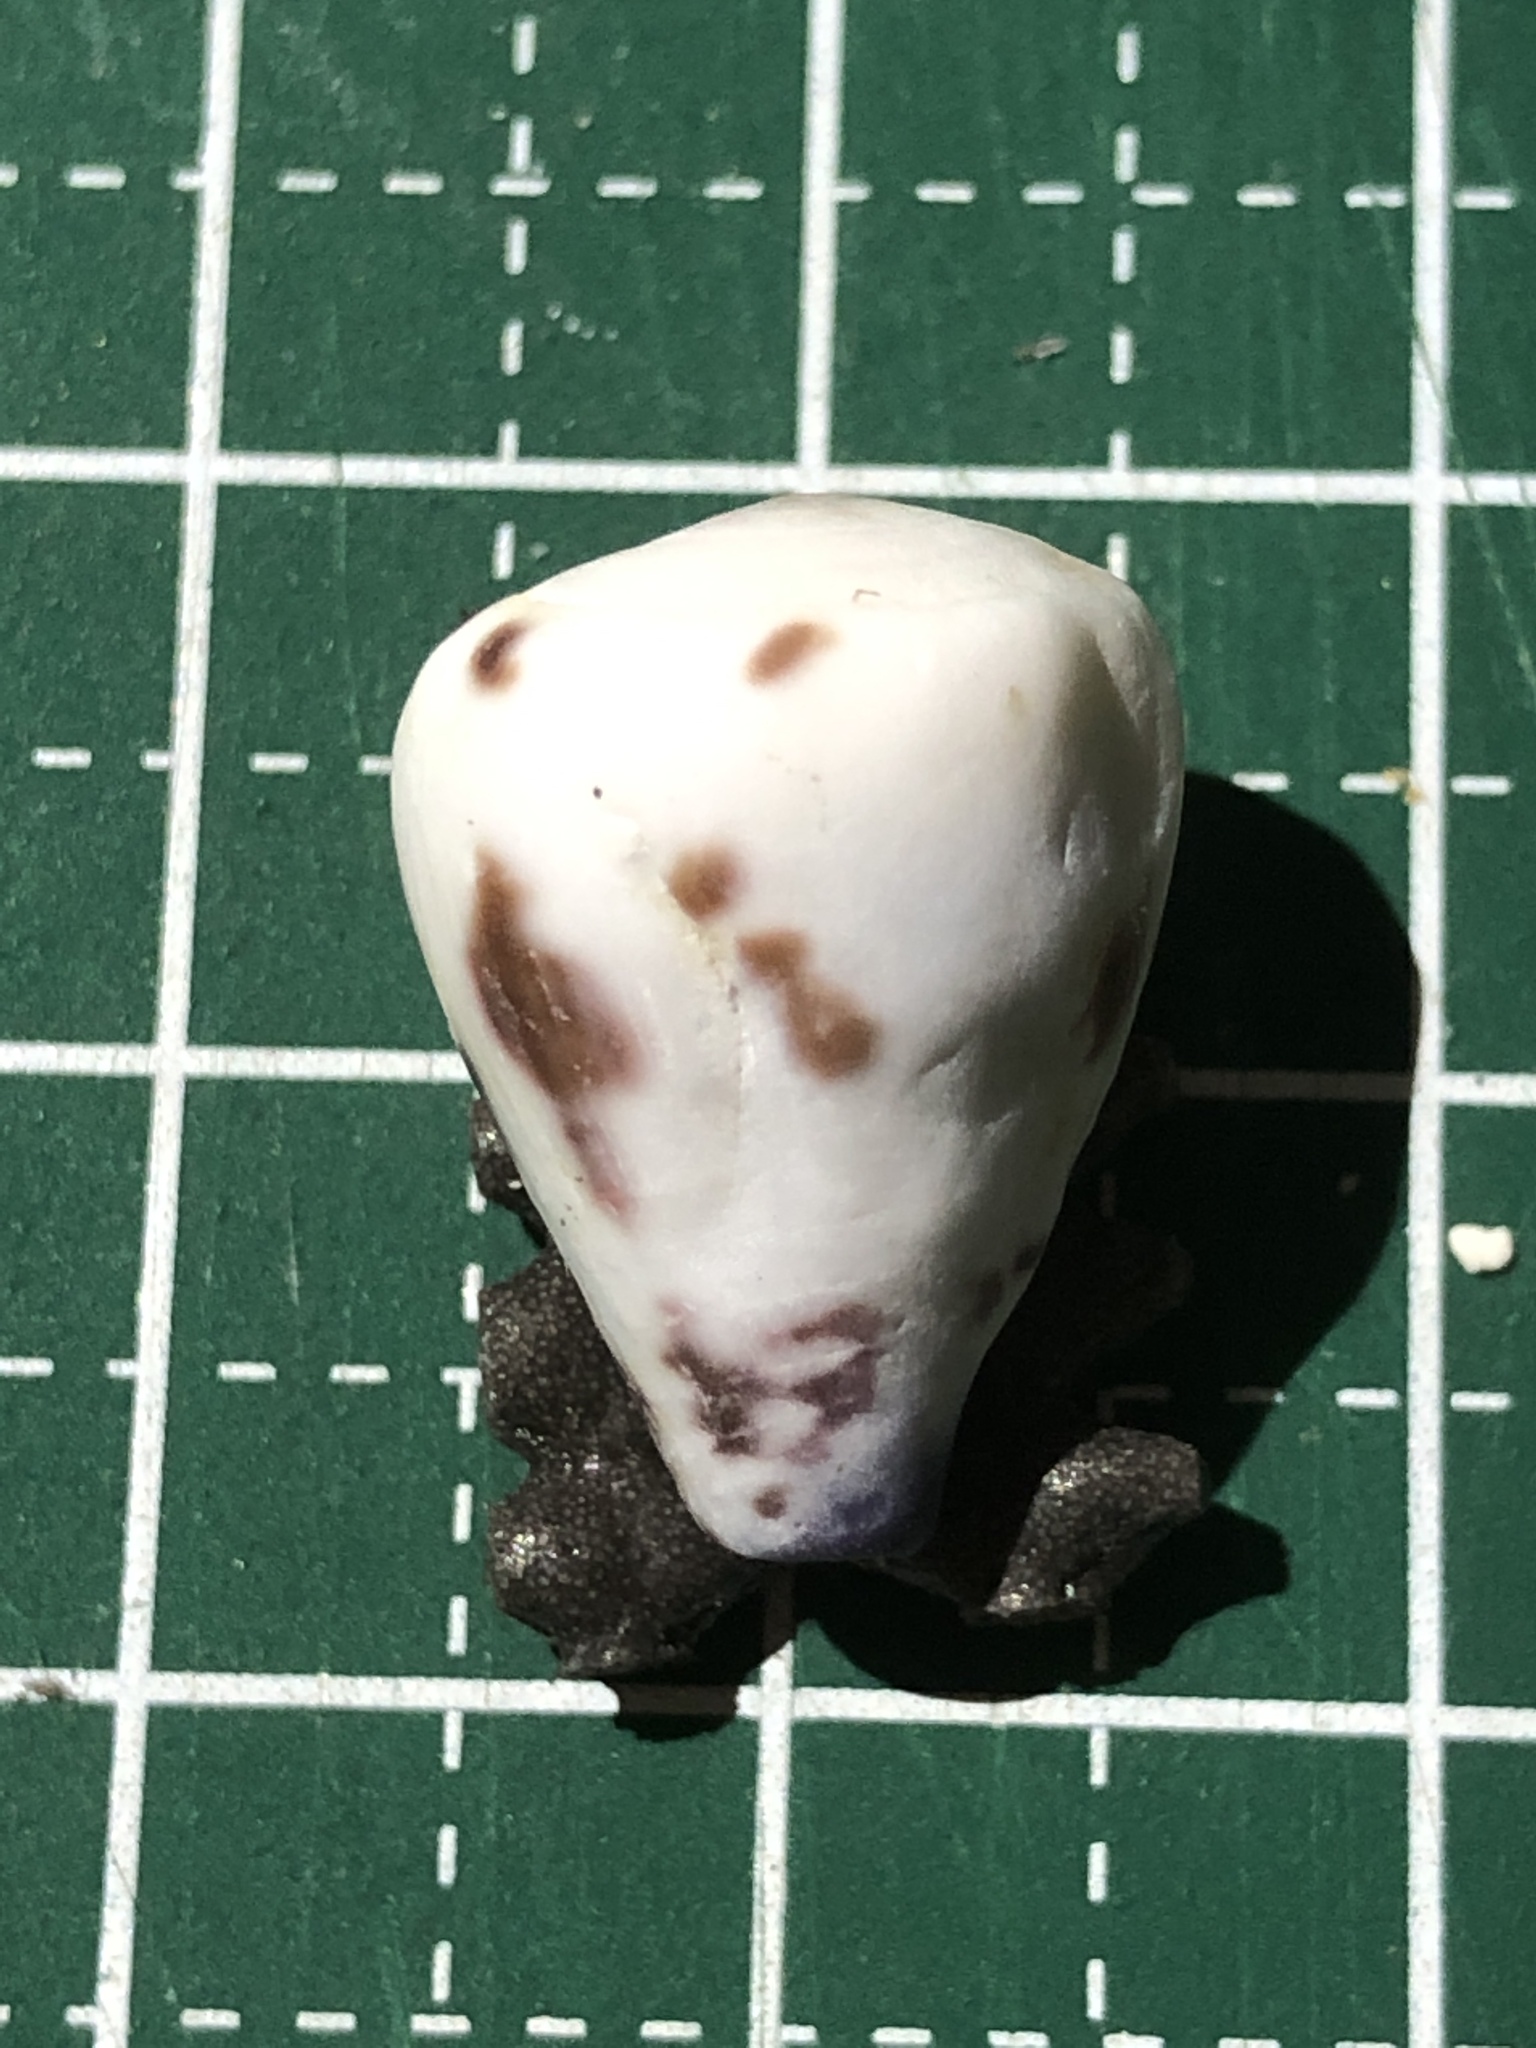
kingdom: Animalia
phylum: Mollusca
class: Gastropoda
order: Neogastropoda
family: Conidae
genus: Conus
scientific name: Conus sponsalis
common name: Sponsal cone
